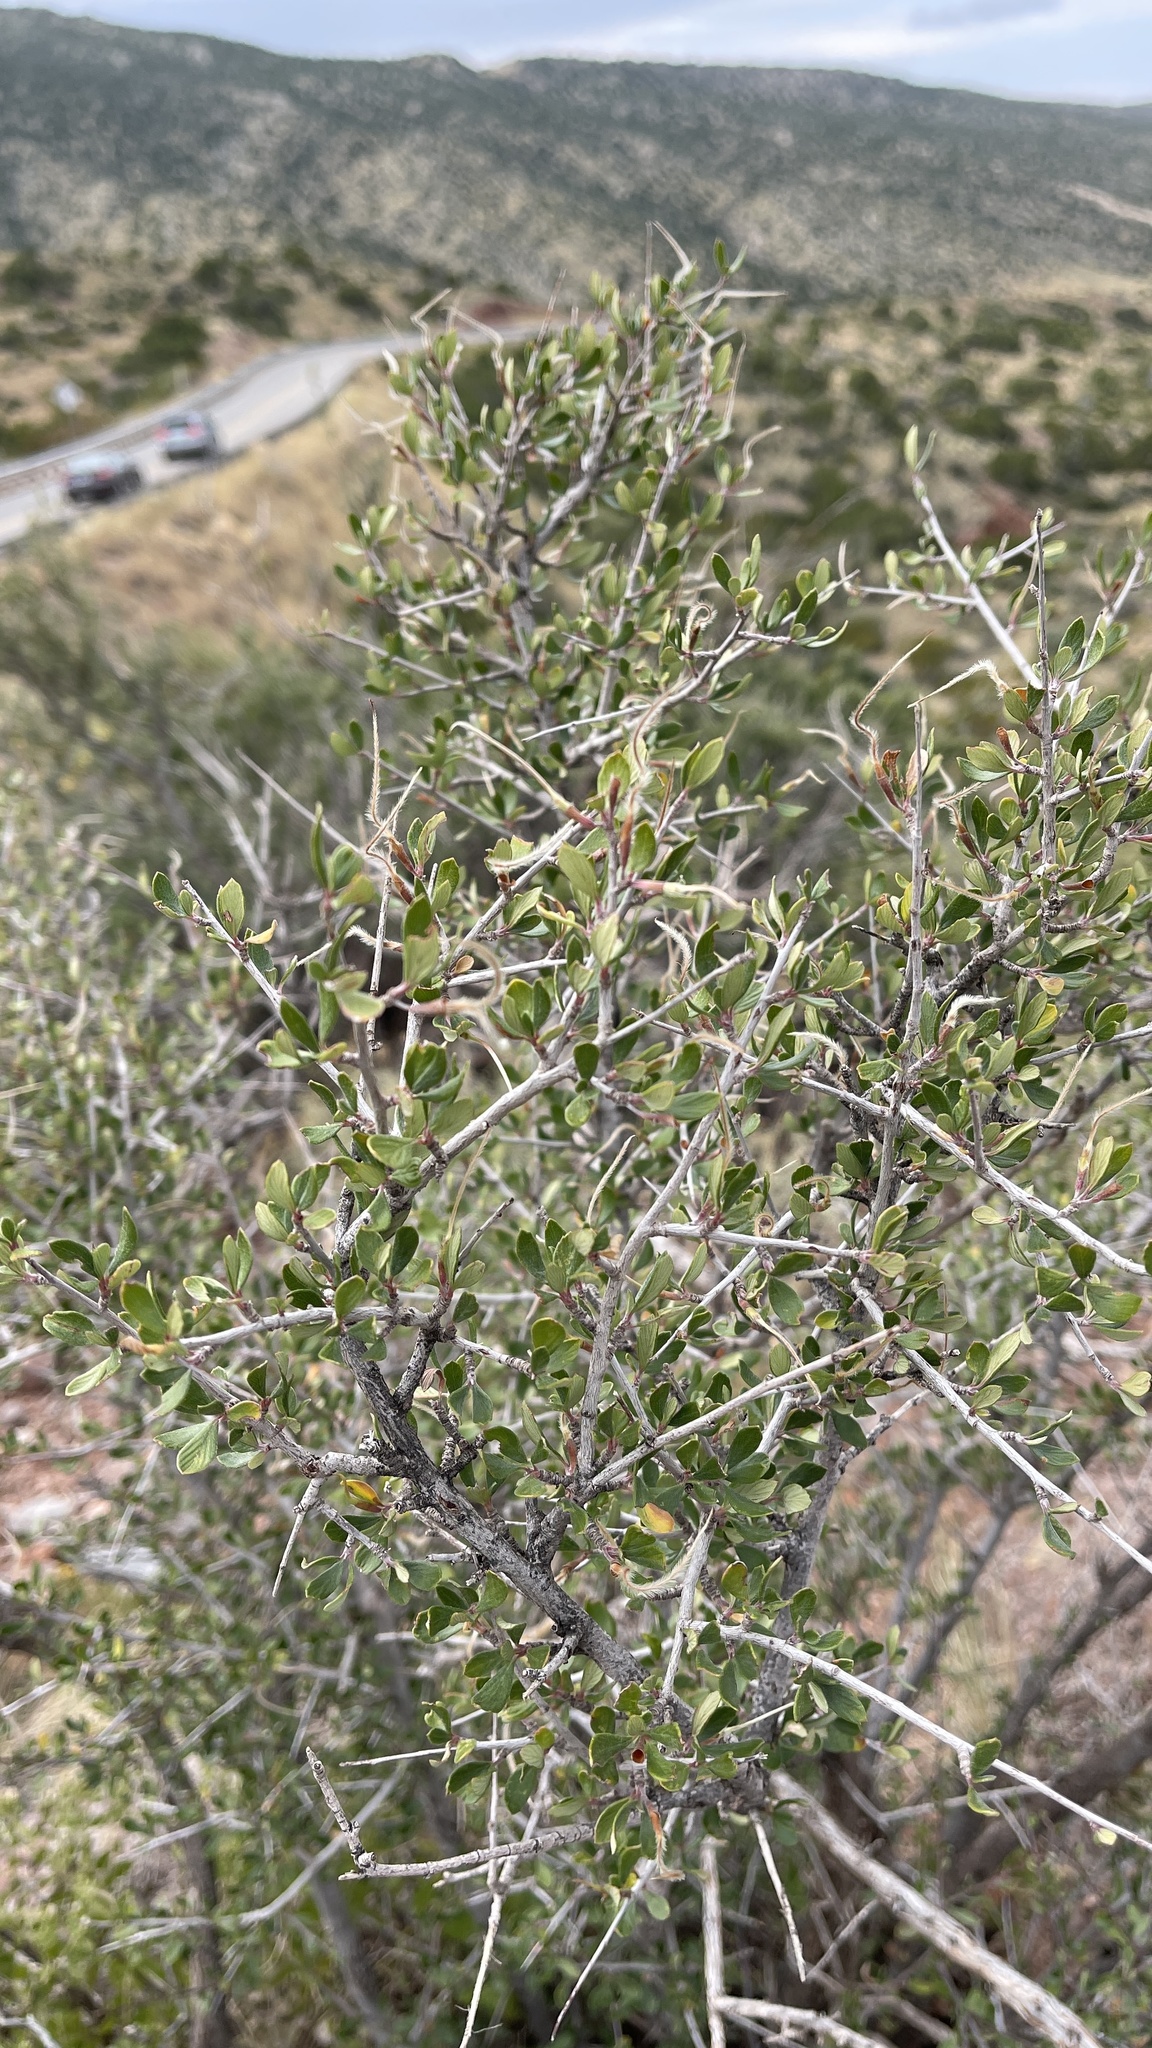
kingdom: Plantae
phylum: Tracheophyta
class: Magnoliopsida
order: Rosales
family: Rosaceae
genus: Cercocarpus
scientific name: Cercocarpus breviflorus
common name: Wright's mountain-mahogany
